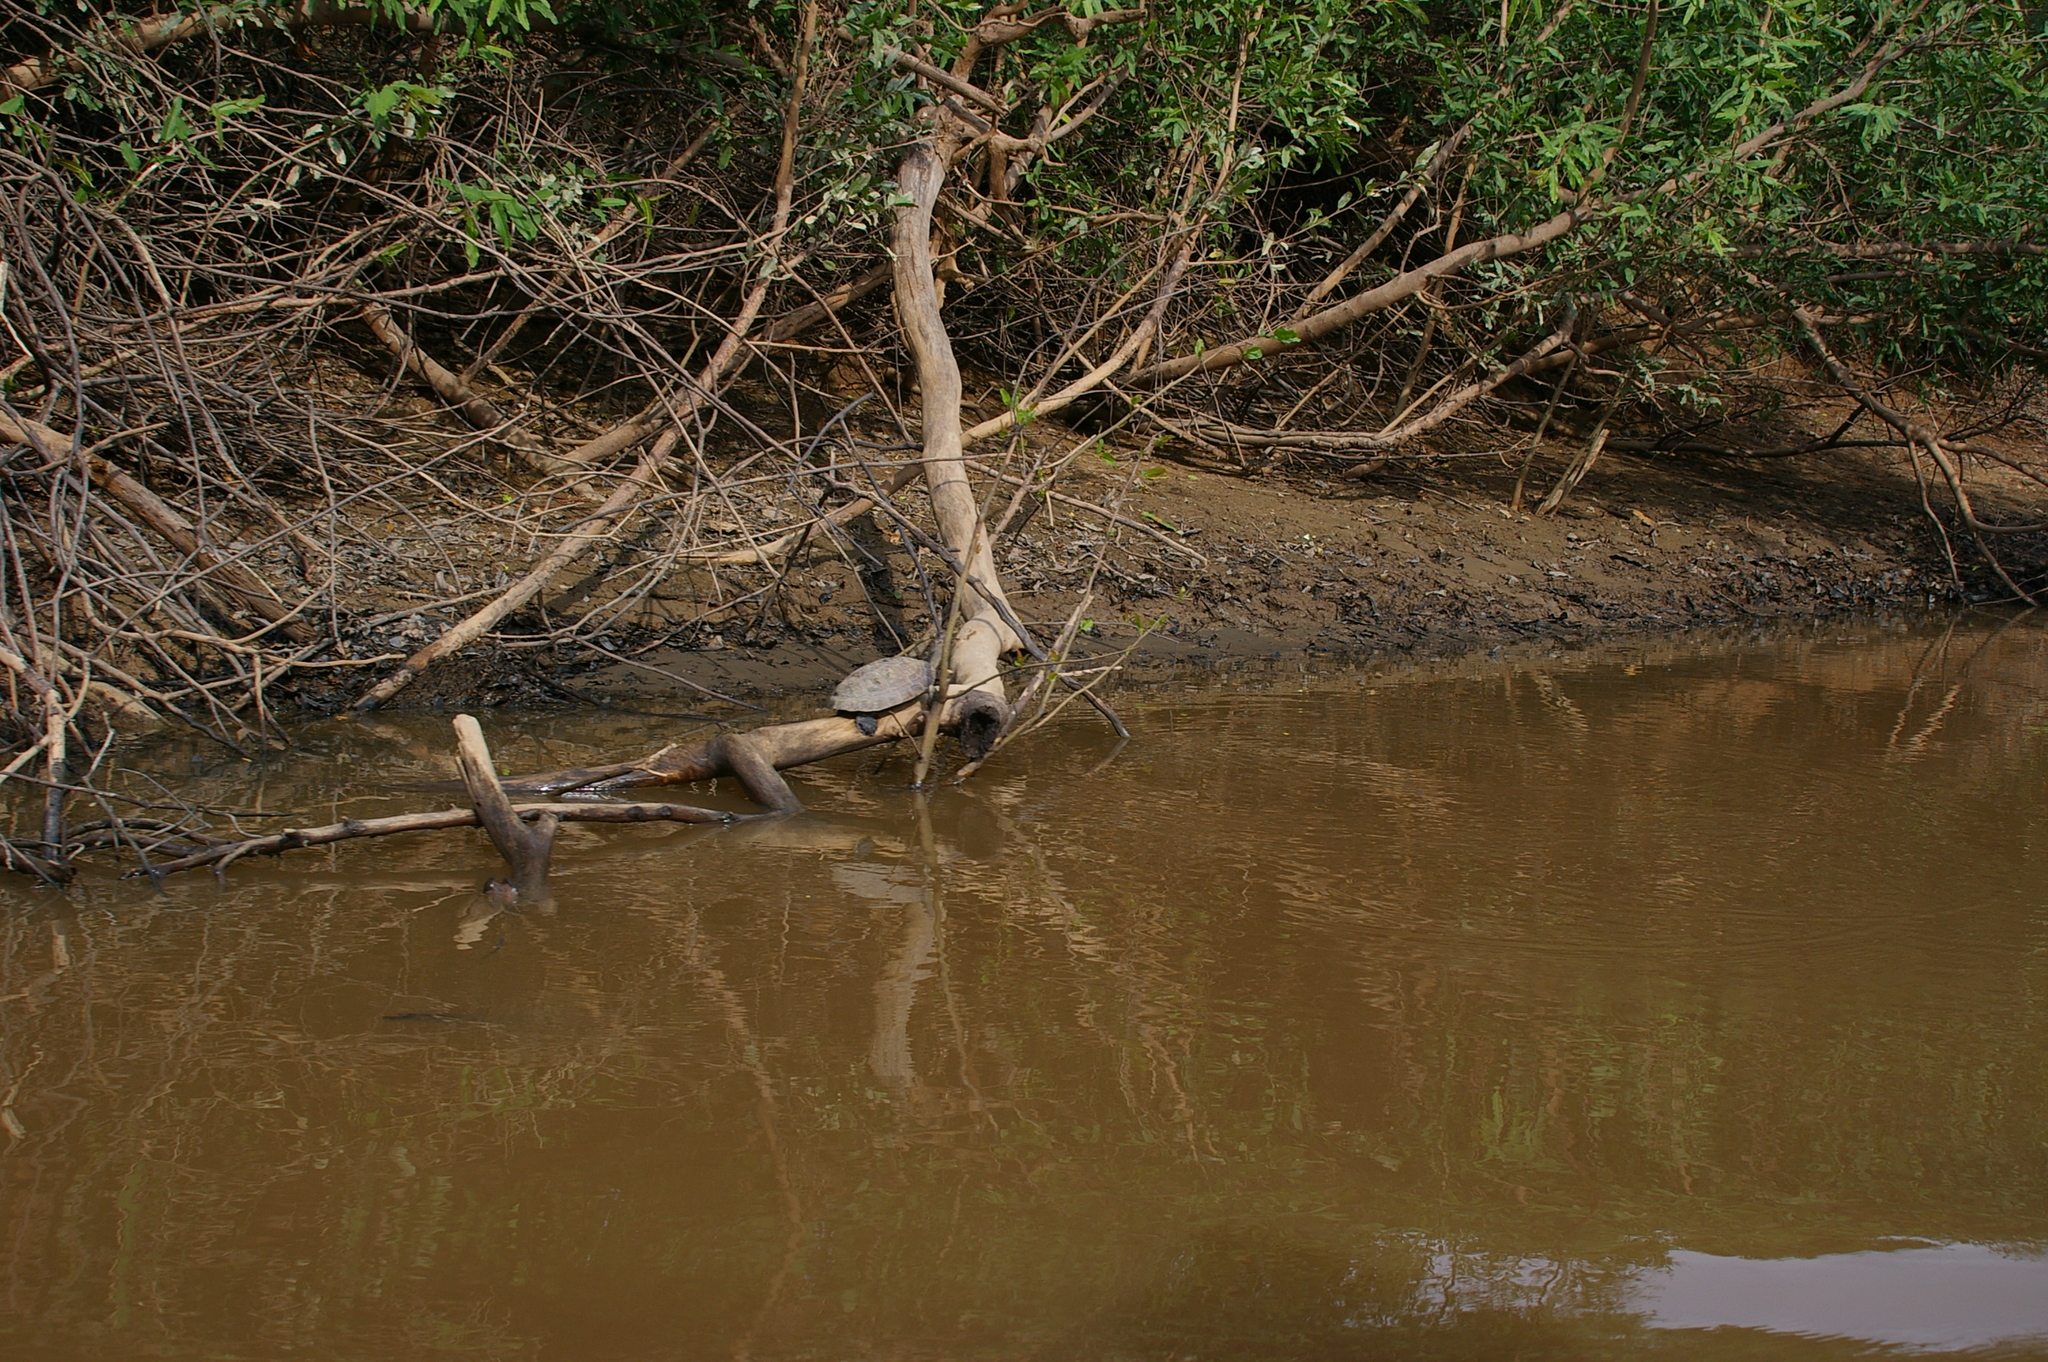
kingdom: Animalia
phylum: Chordata
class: Testudines
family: Podocnemididae
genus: Podocnemis
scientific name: Podocnemis unifilis
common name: Yellow-spotted amazon river turtle
